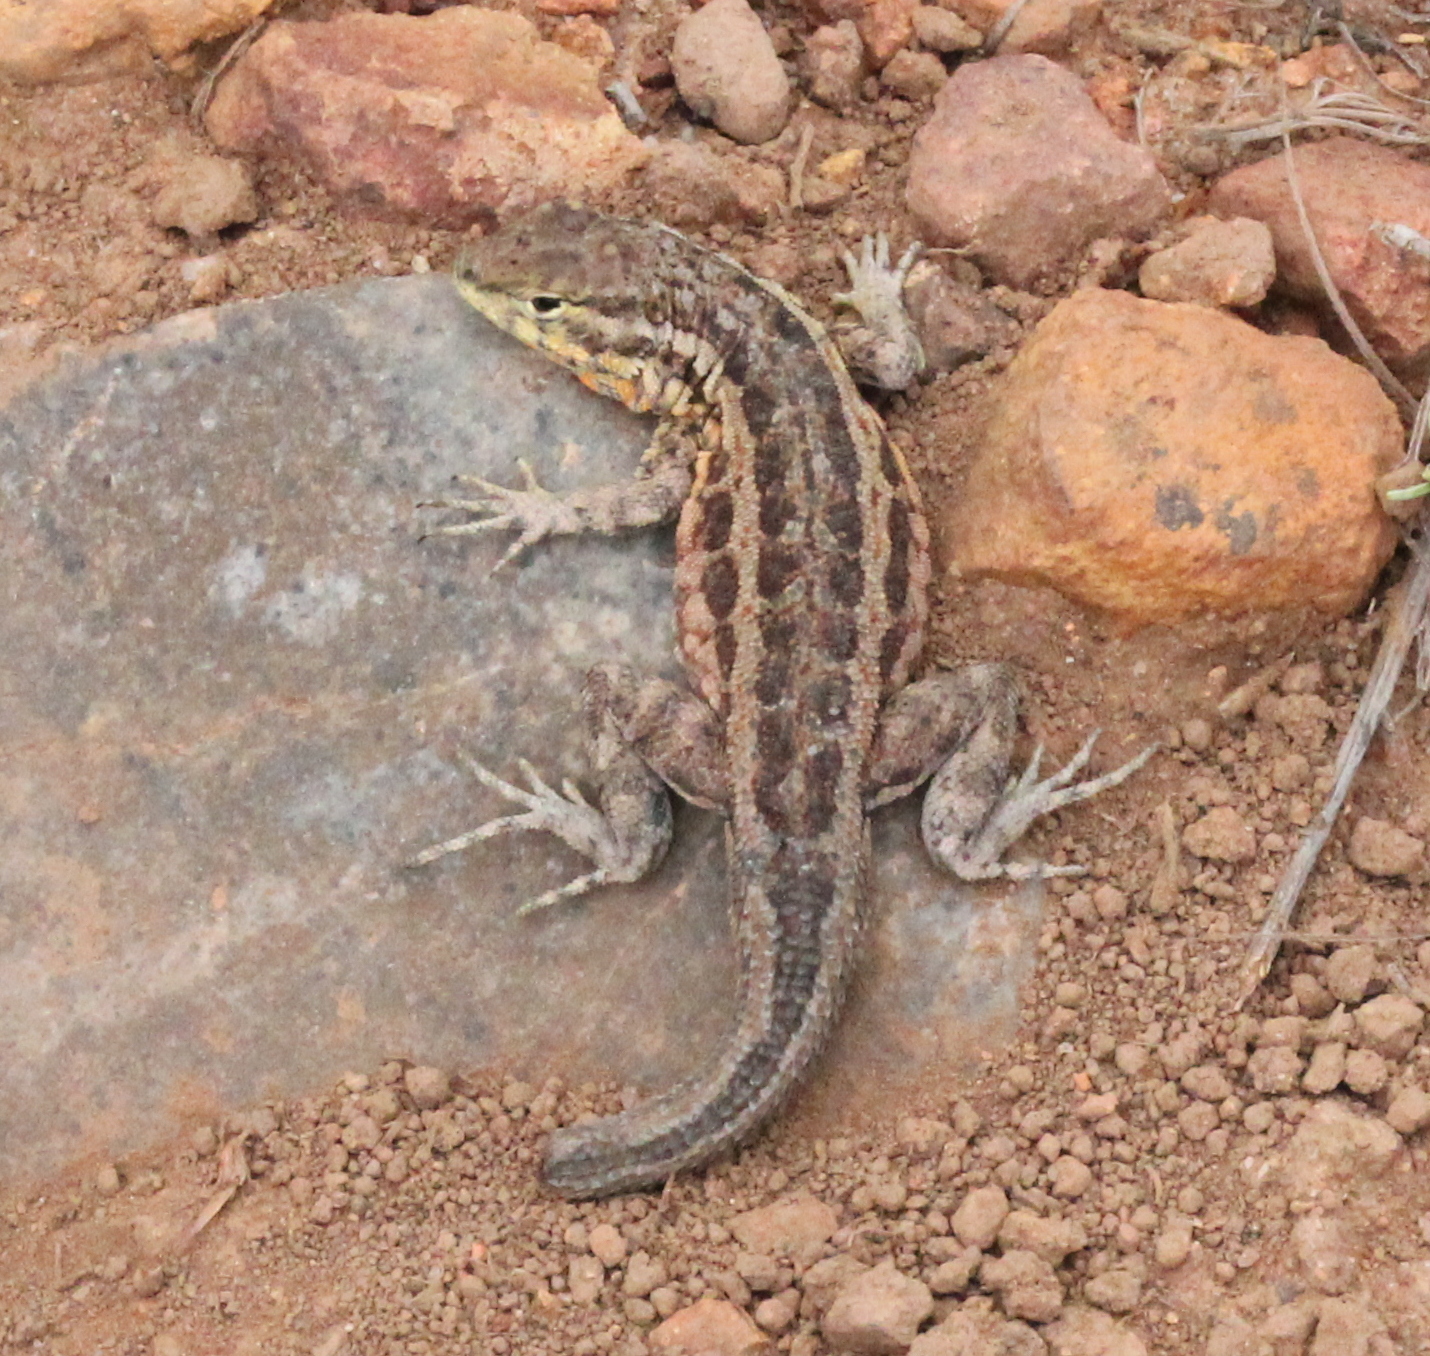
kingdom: Animalia
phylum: Chordata
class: Squamata
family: Phrynosomatidae
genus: Uta
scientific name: Uta stansburiana
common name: Side-blotched lizard
